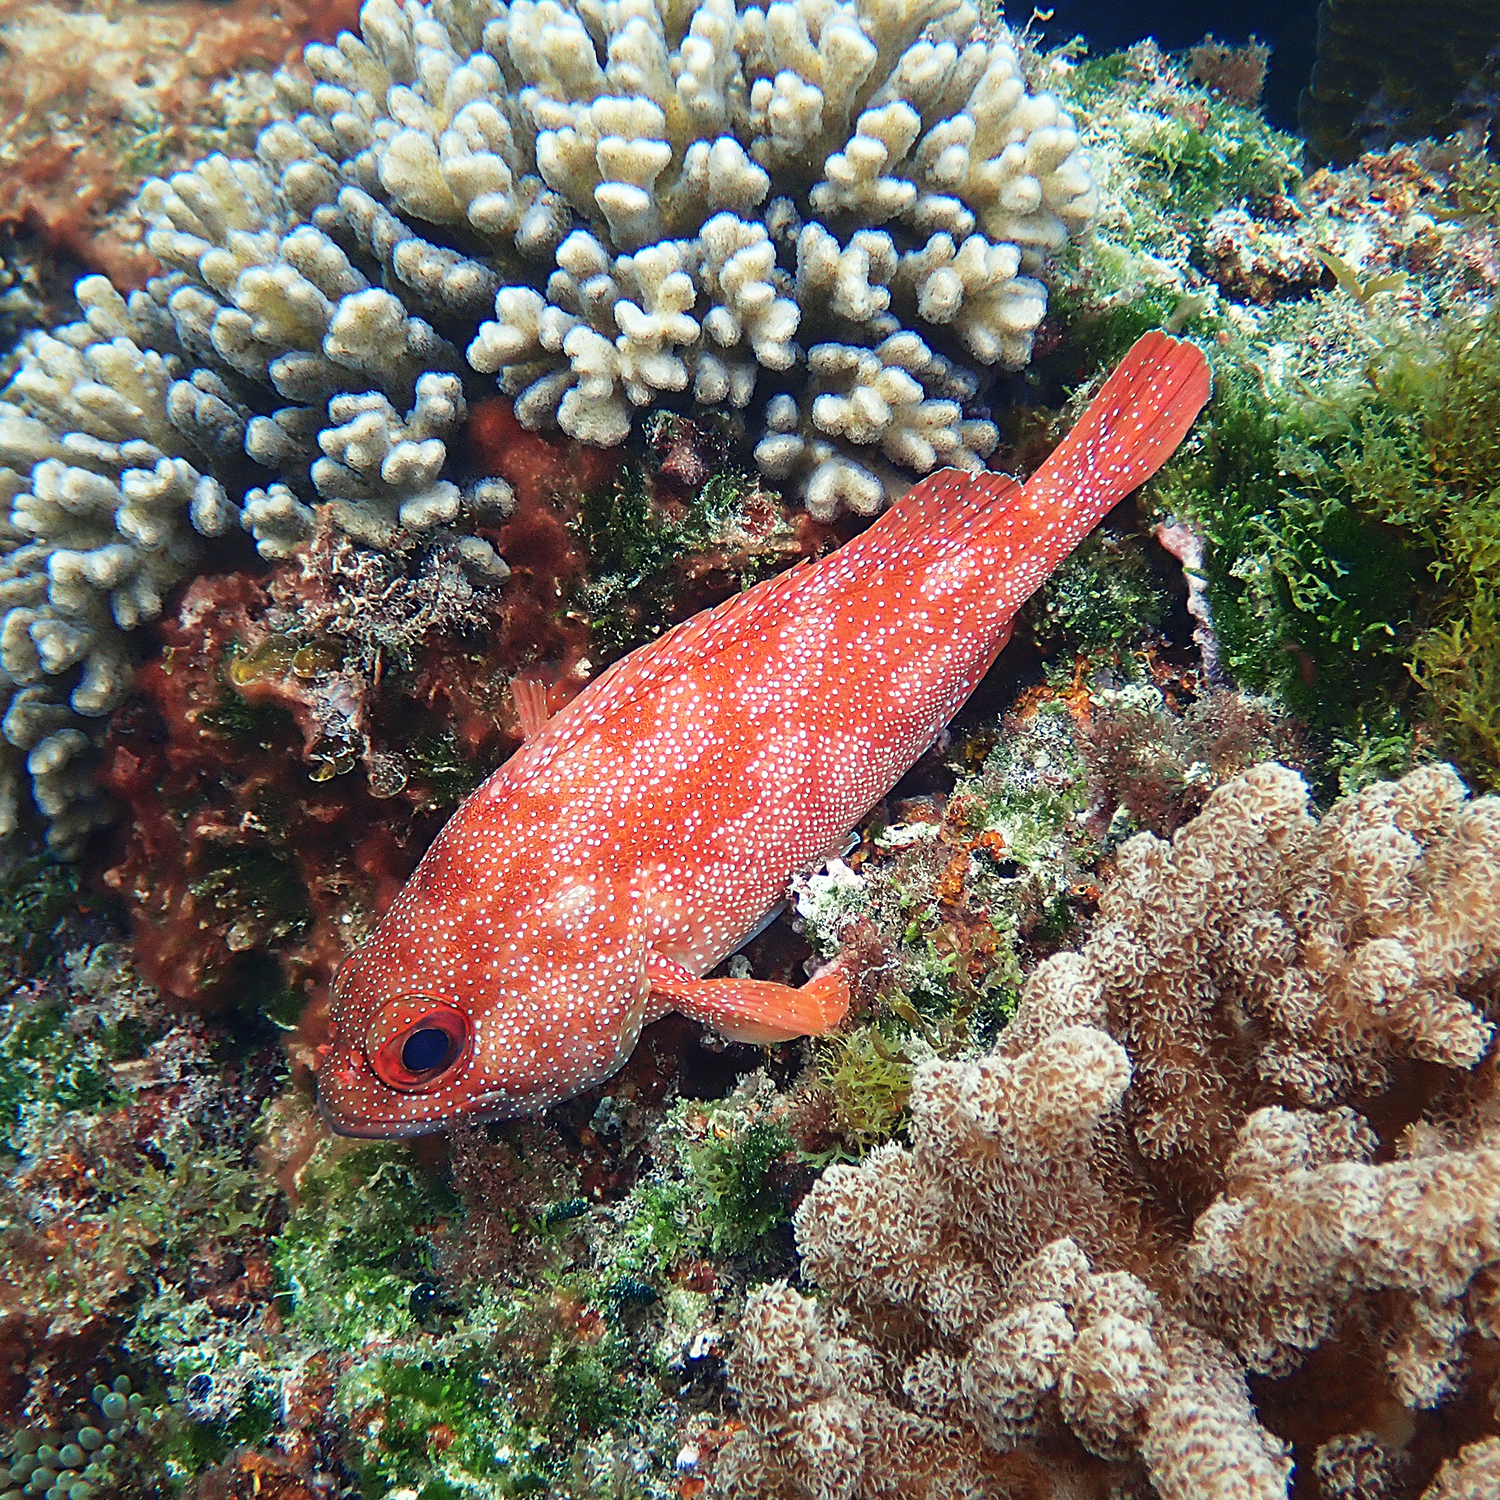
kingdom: Animalia
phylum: Chordata
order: Perciformes
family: Serranidae
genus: Trachypoma
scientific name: Trachypoma macracanthus
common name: Toadstool grouper
